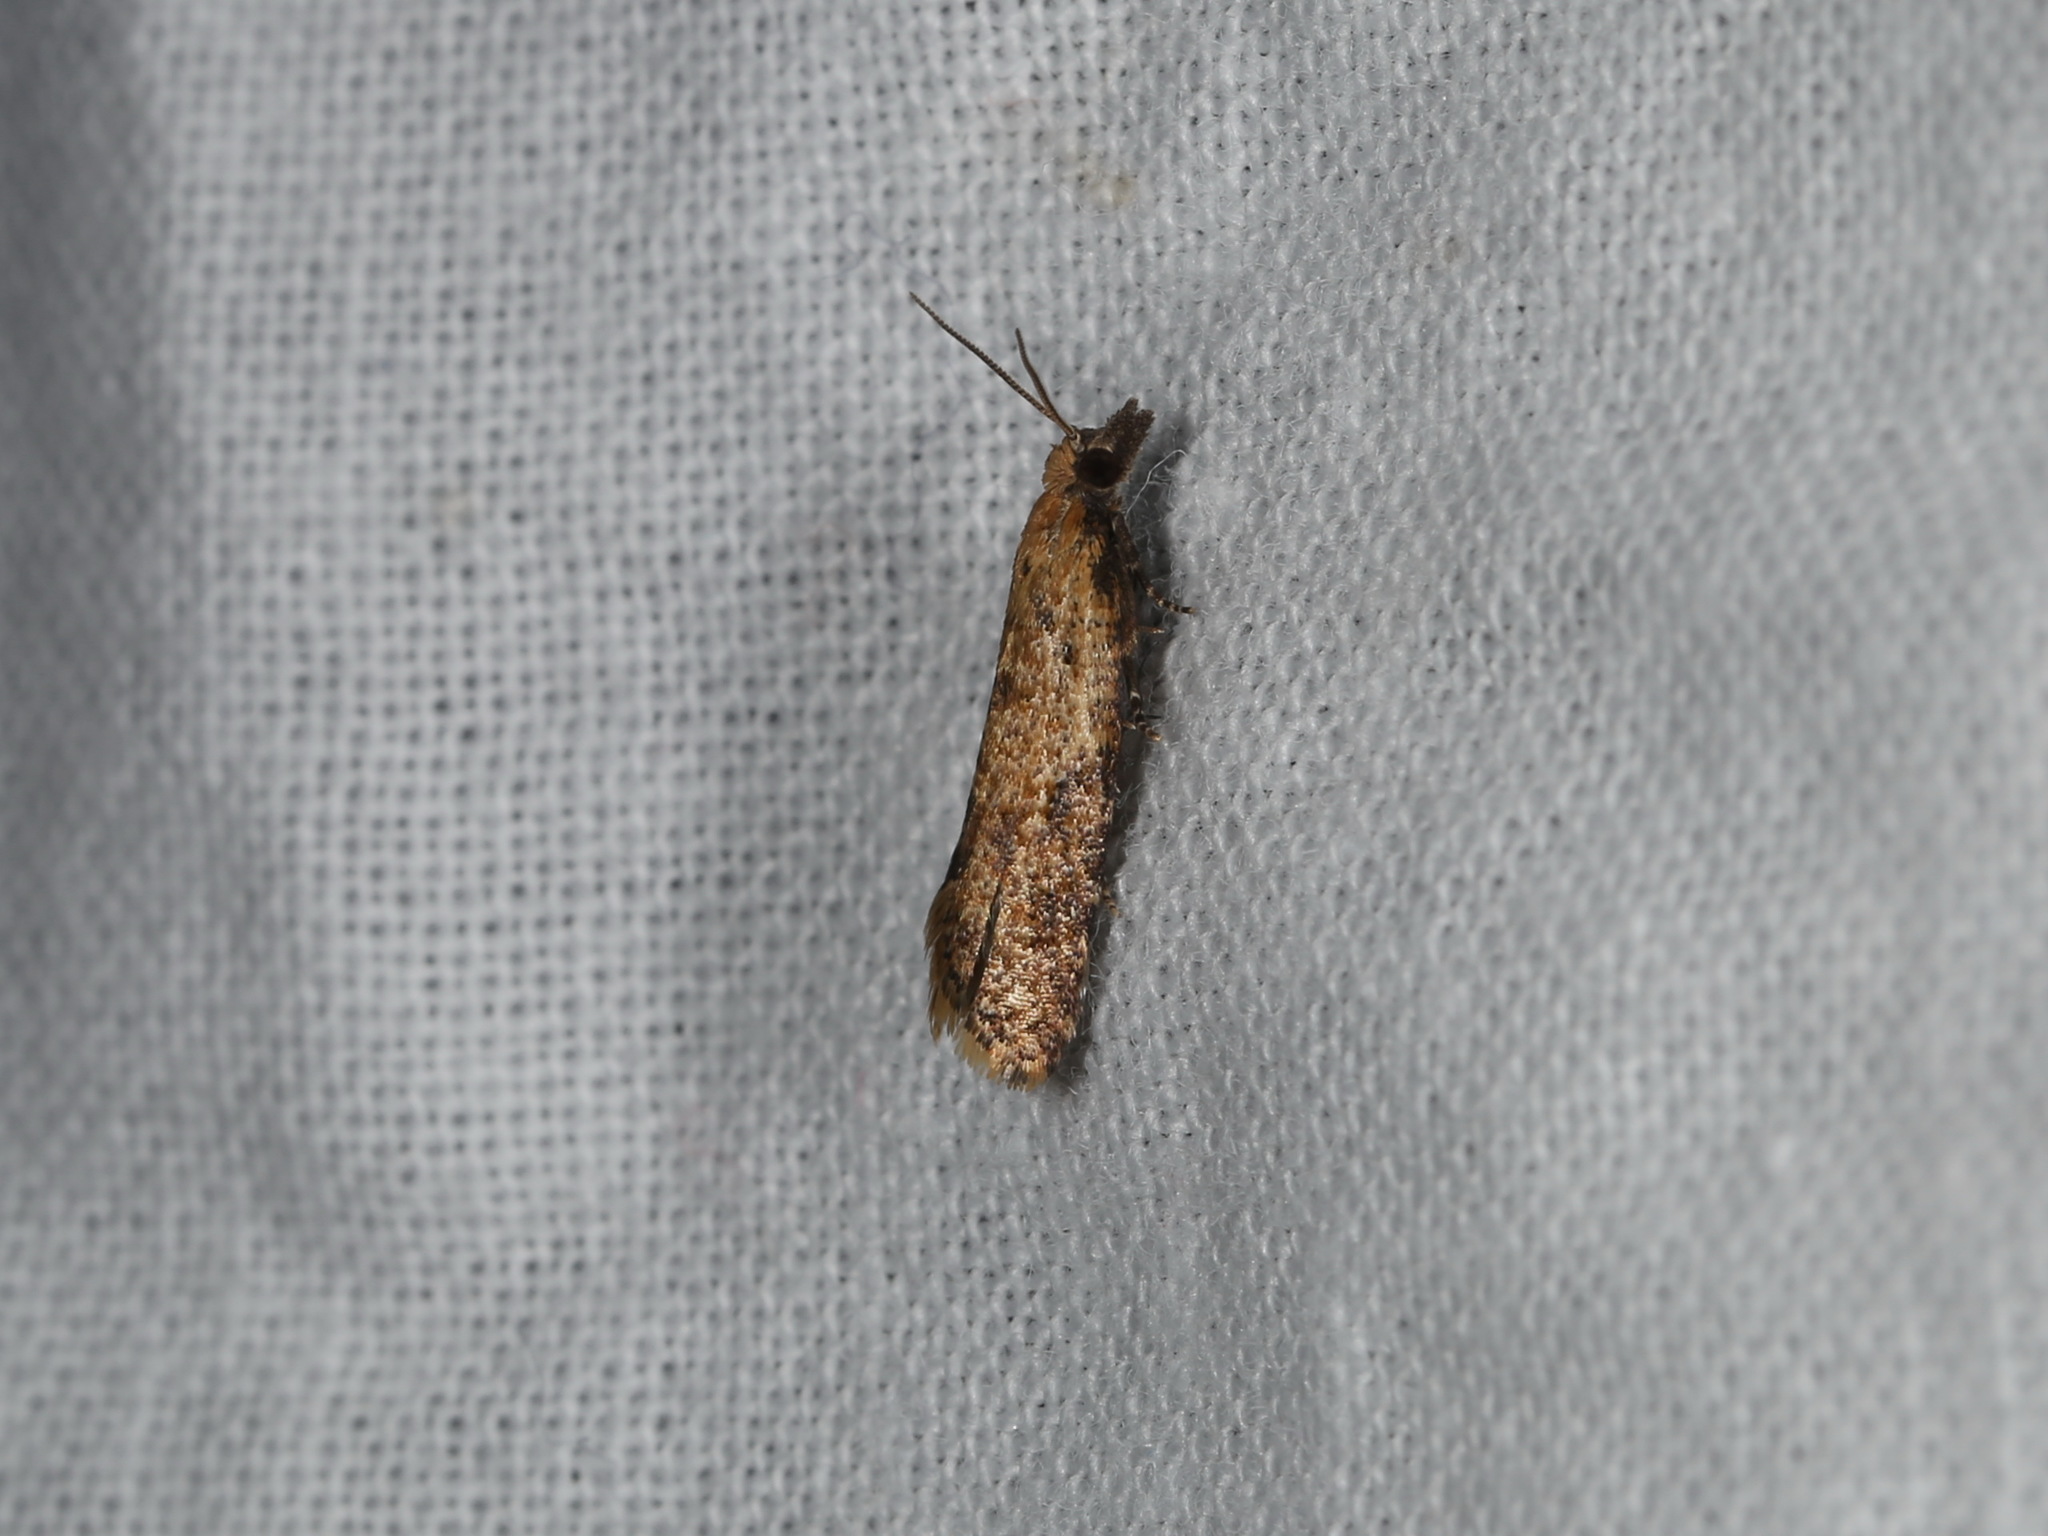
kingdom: Animalia
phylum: Arthropoda
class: Insecta
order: Lepidoptera
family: Tortricidae
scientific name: Tortricidae
